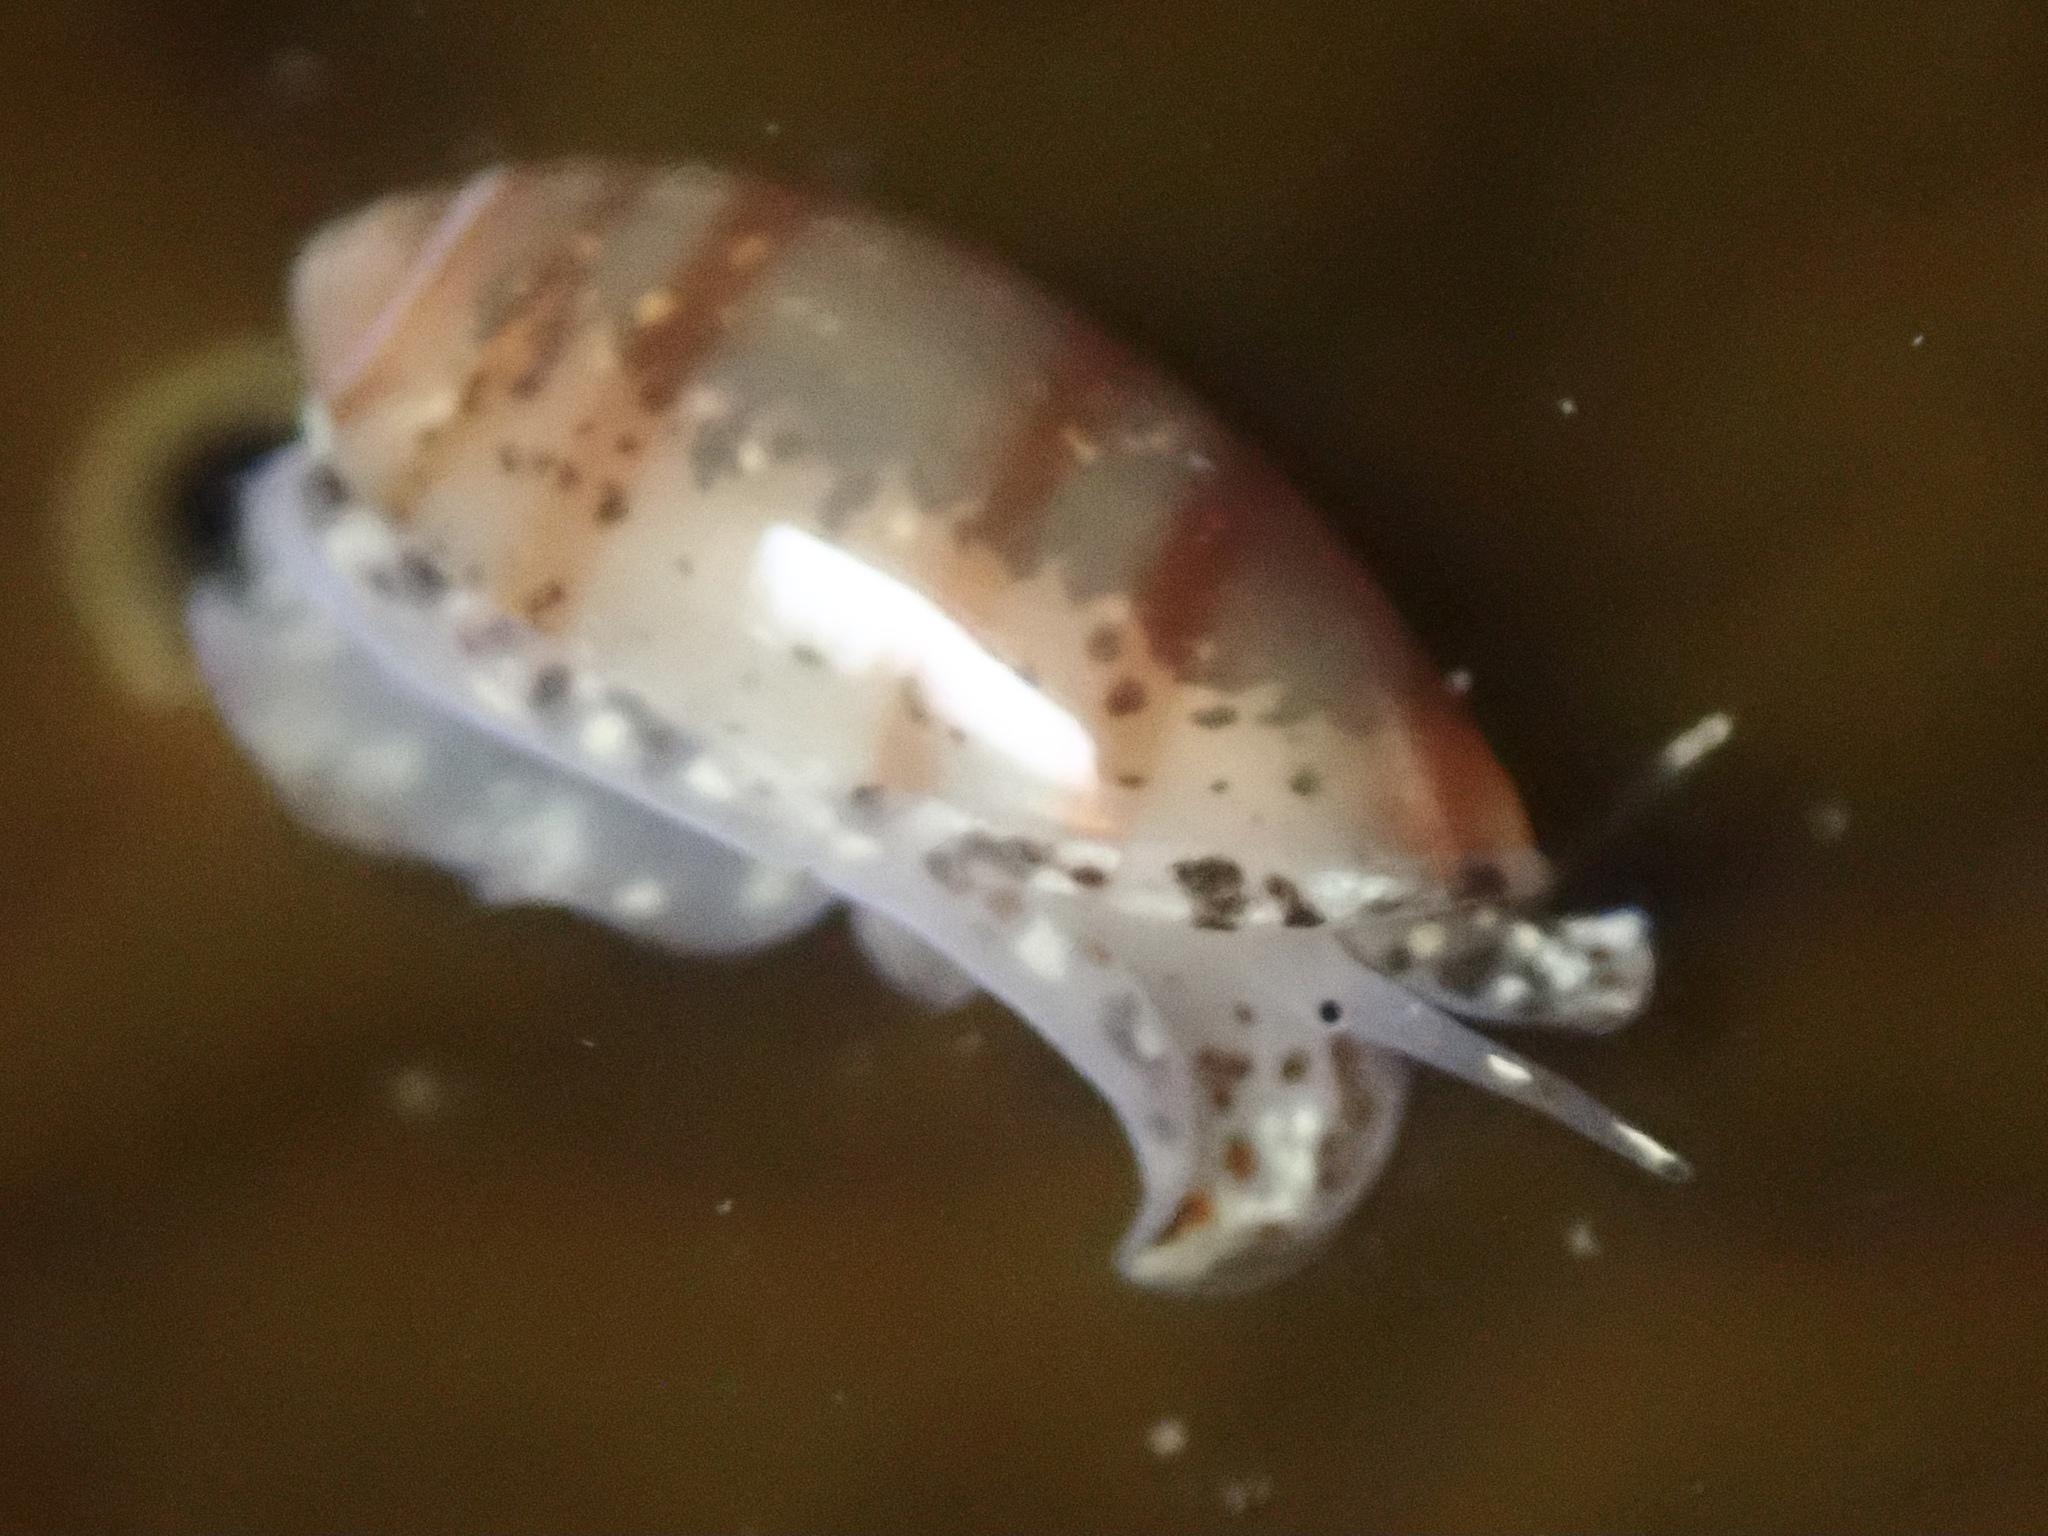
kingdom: Animalia
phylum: Mollusca
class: Gastropoda
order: Neogastropoda
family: Marginellidae
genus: Volvarina
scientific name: Volvarina taeniolata
